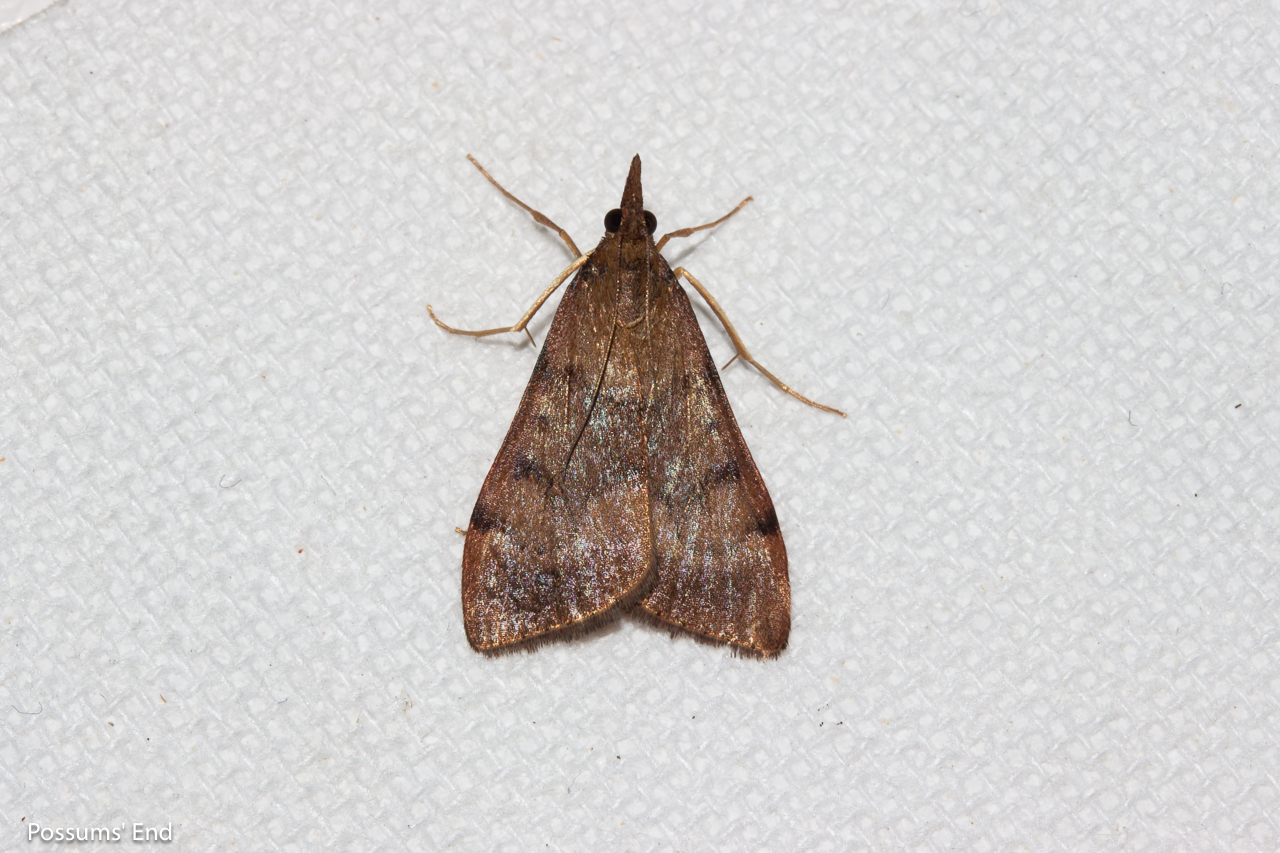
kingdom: Animalia
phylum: Arthropoda
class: Insecta
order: Lepidoptera
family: Crambidae
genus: Uresiphita
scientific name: Uresiphita
